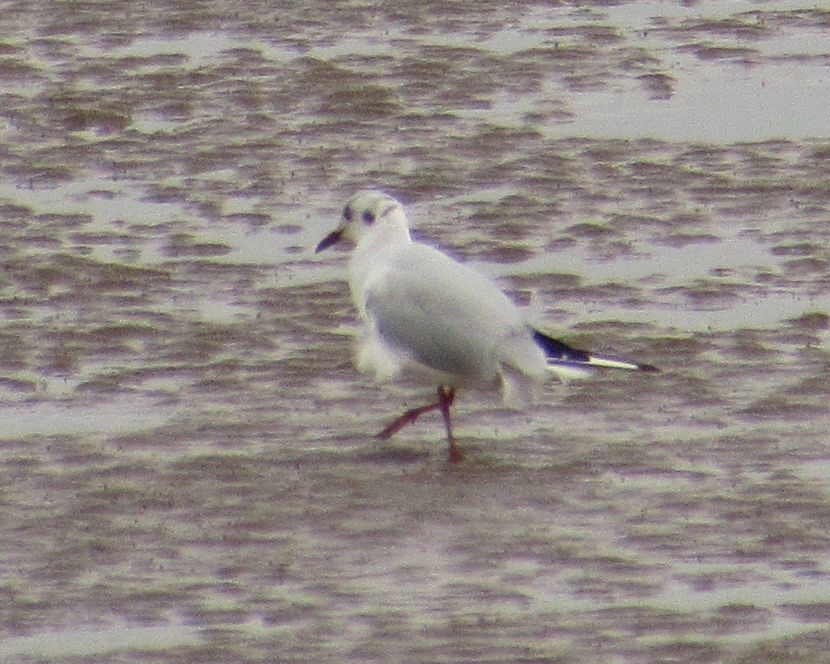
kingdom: Animalia
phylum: Chordata
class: Aves
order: Charadriiformes
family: Laridae
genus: Chroicocephalus
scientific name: Chroicocephalus ridibundus
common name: Black-headed gull
